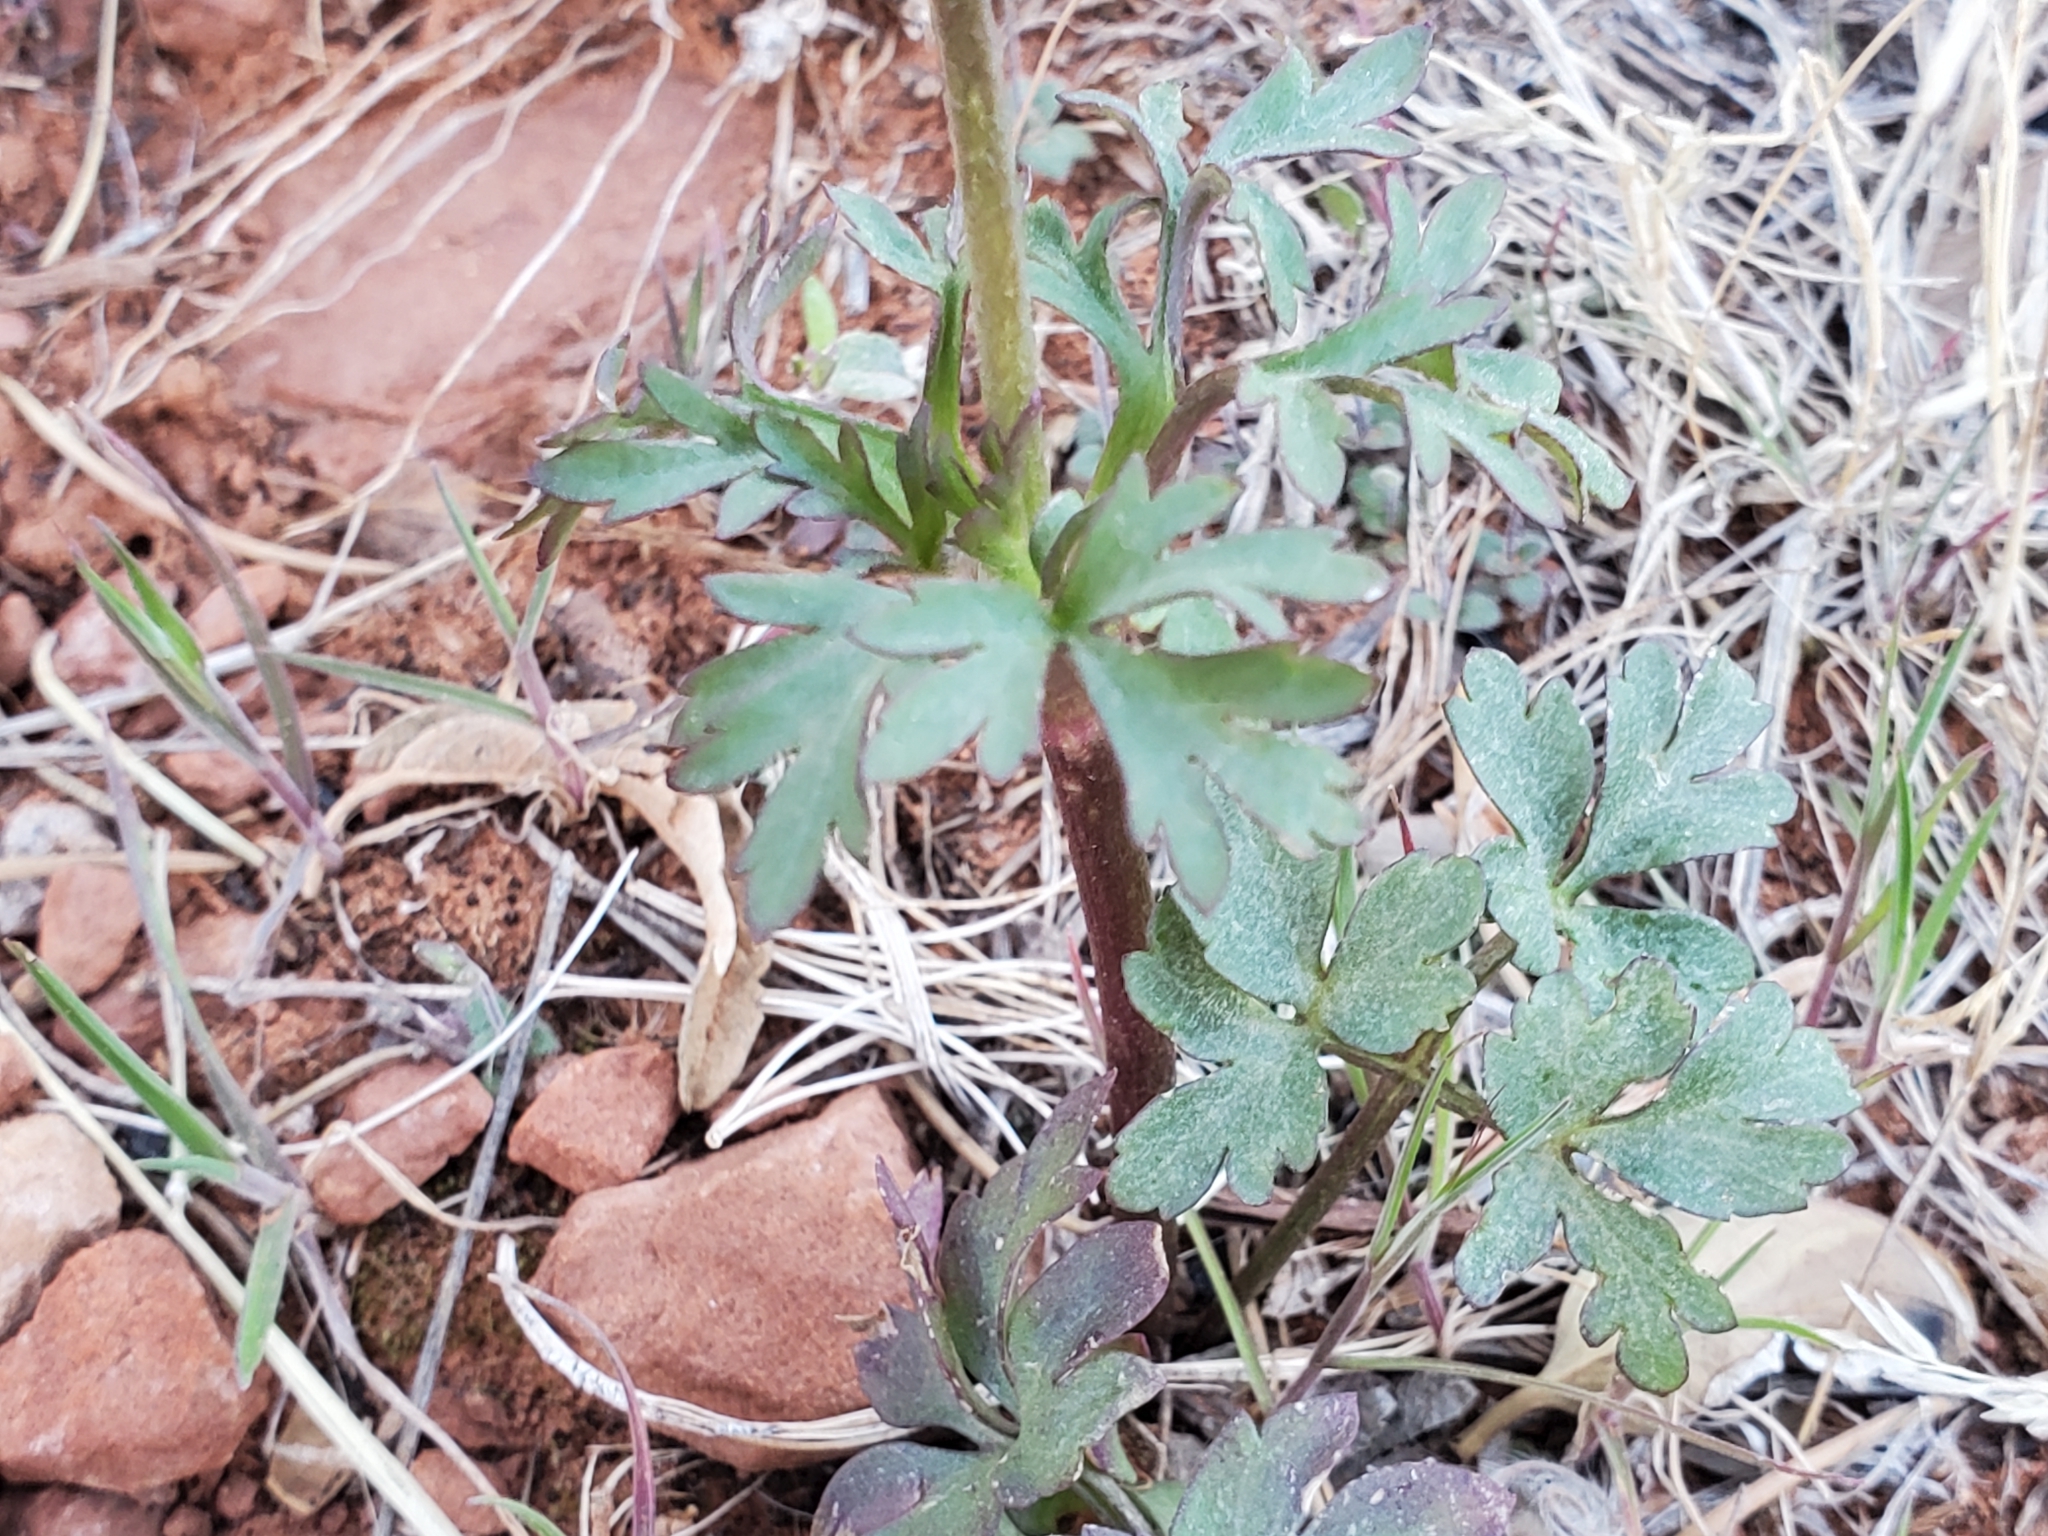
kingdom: Plantae
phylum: Tracheophyta
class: Magnoliopsida
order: Ranunculales
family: Ranunculaceae
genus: Anemone
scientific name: Anemone tuberosa
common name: Desert anemone
